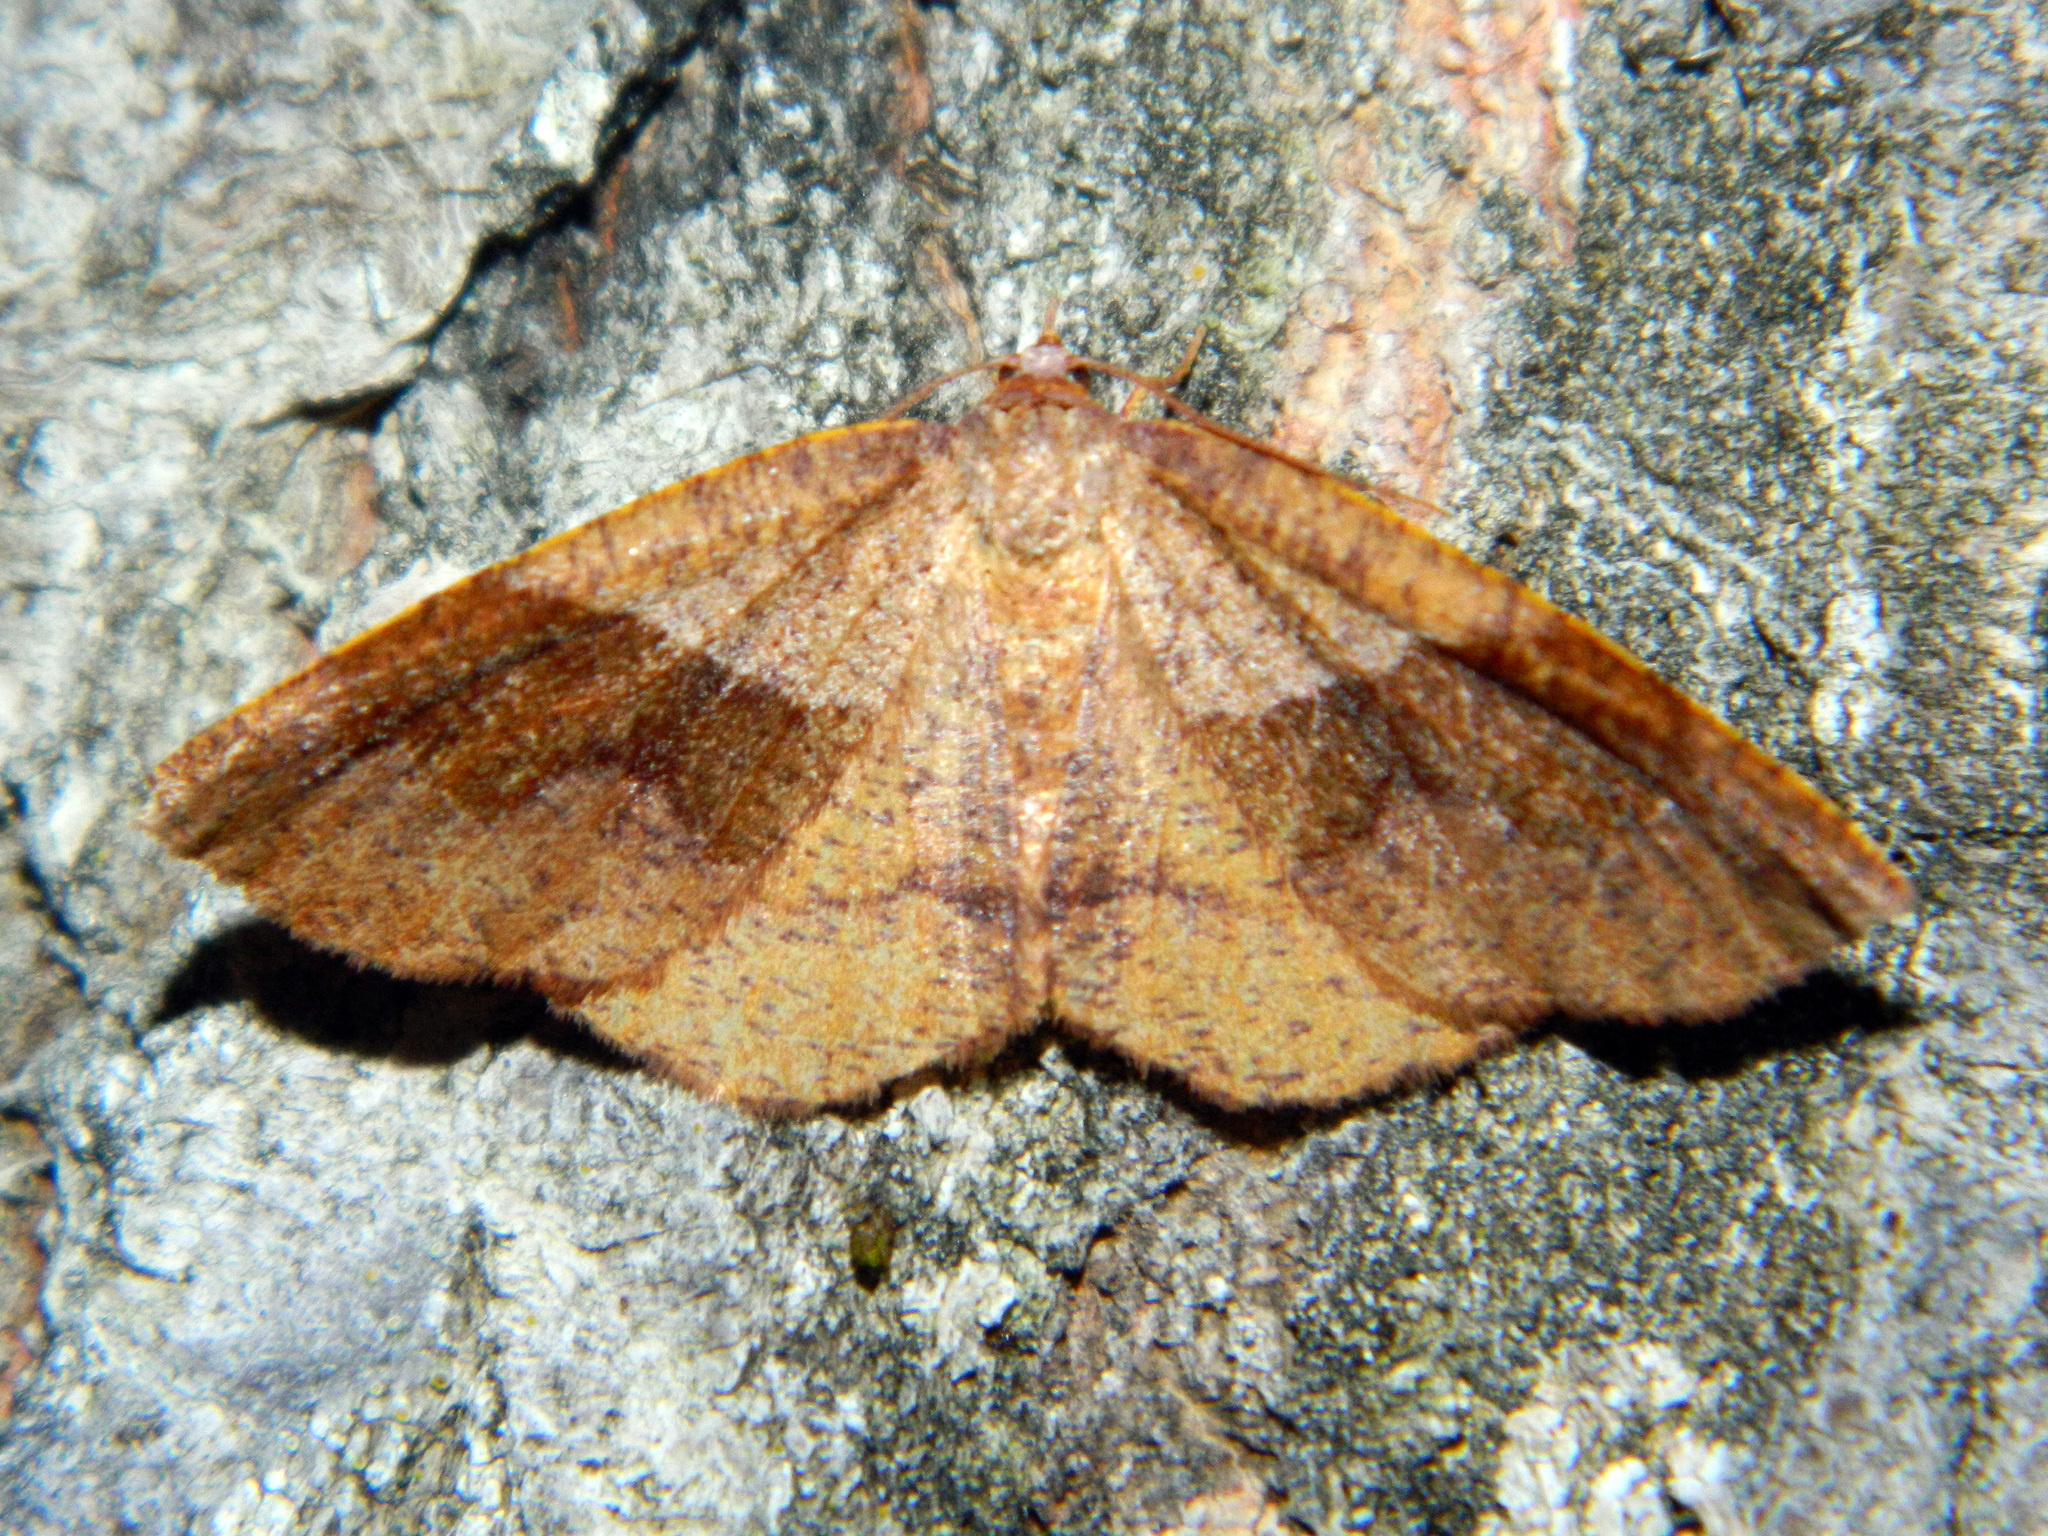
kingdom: Animalia
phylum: Arthropoda
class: Insecta
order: Lepidoptera
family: Geometridae
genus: Plagodis
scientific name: Plagodis pulveraria
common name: Barred umber
